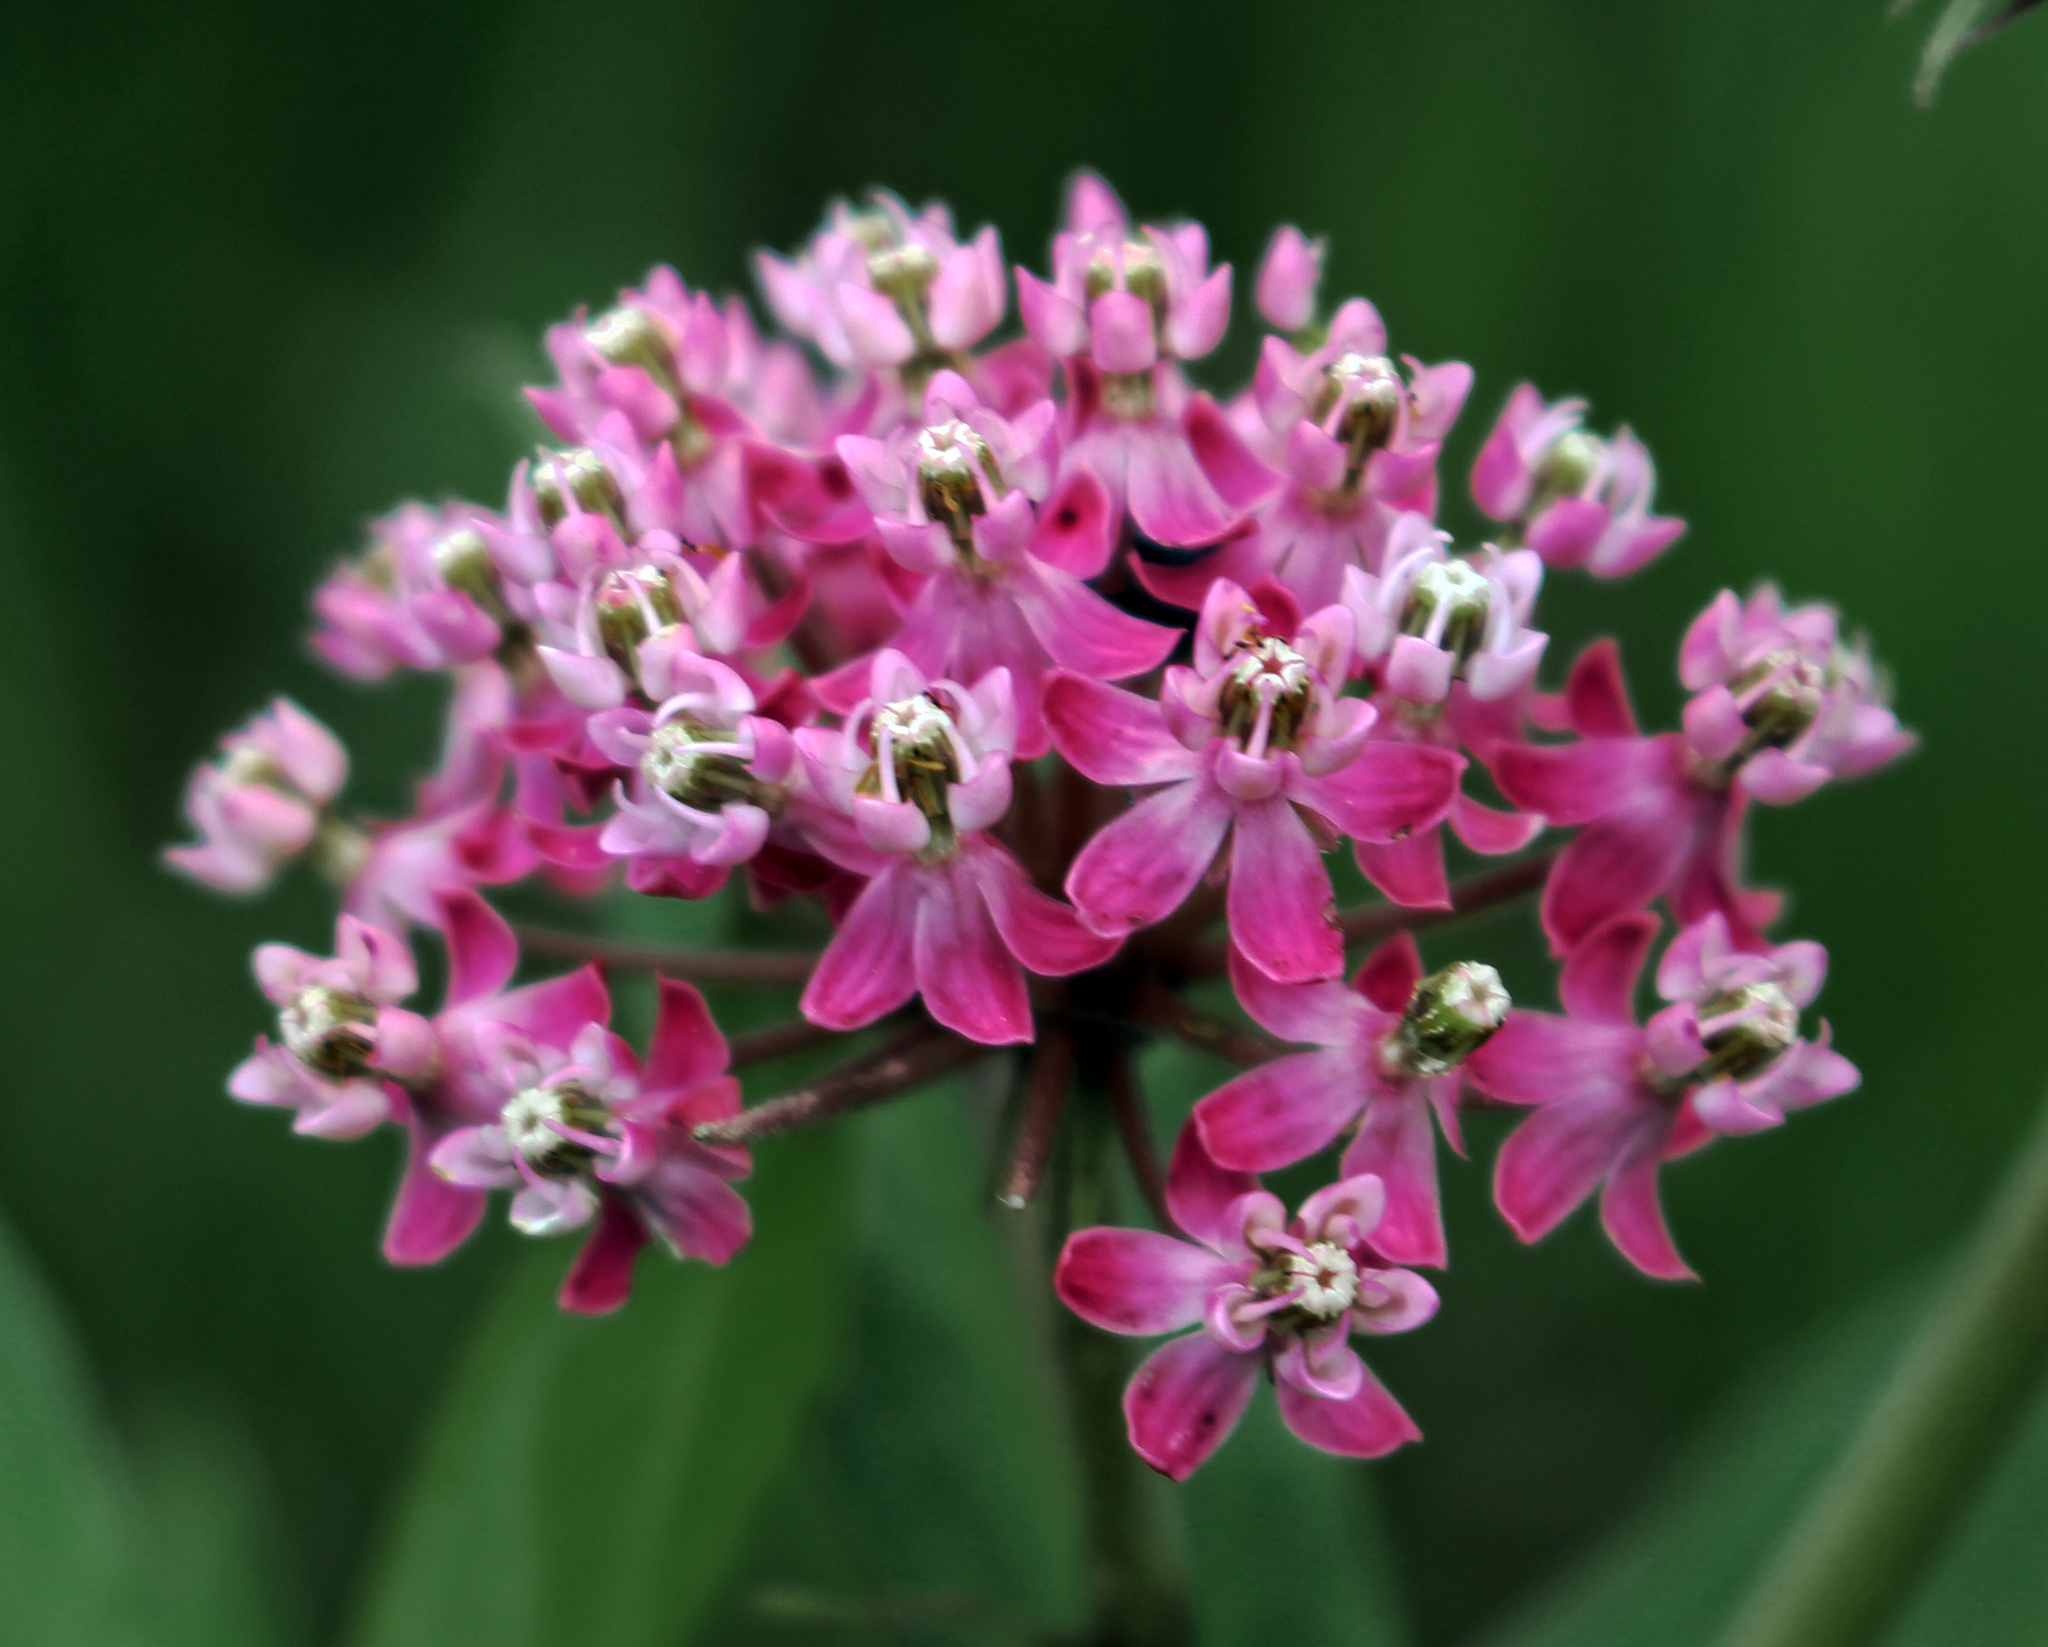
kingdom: Plantae
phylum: Tracheophyta
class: Magnoliopsida
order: Gentianales
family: Apocynaceae
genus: Asclepias
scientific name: Asclepias incarnata
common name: Swamp milkweed
